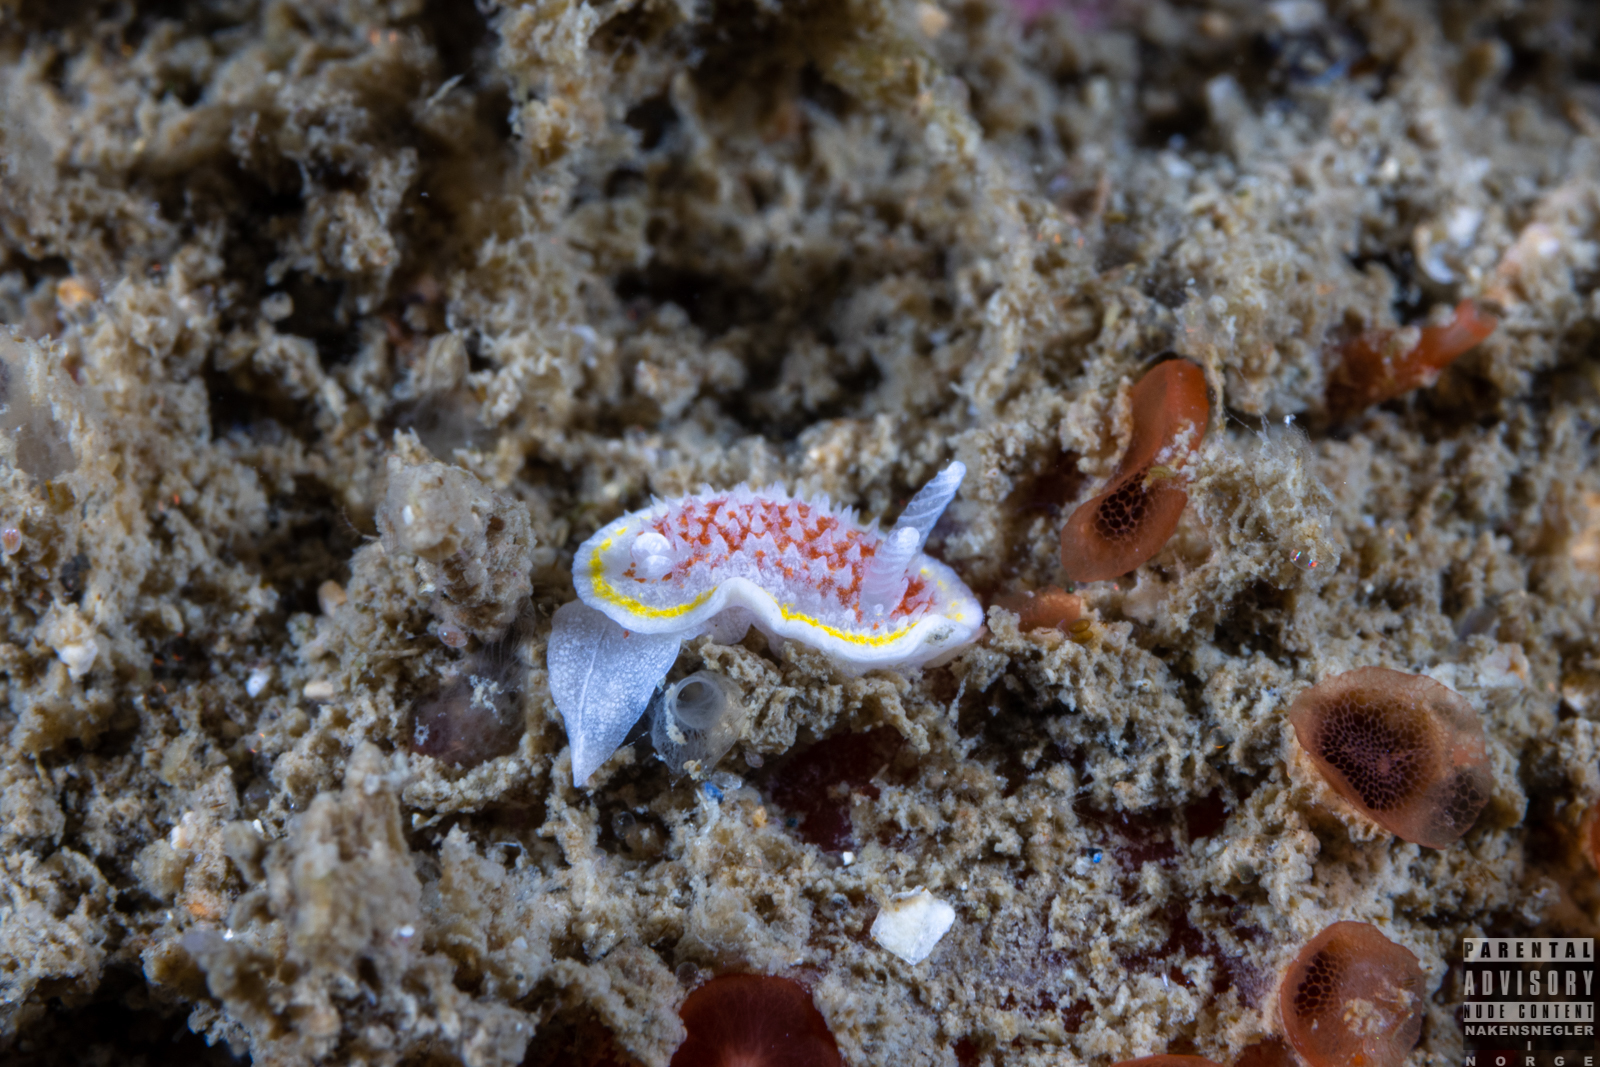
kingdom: Animalia
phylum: Mollusca
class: Gastropoda
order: Nudibranchia
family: Calycidorididae
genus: Diaphorodoris
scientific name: Diaphorodoris luteocincta
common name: Fried egg nudibranch
